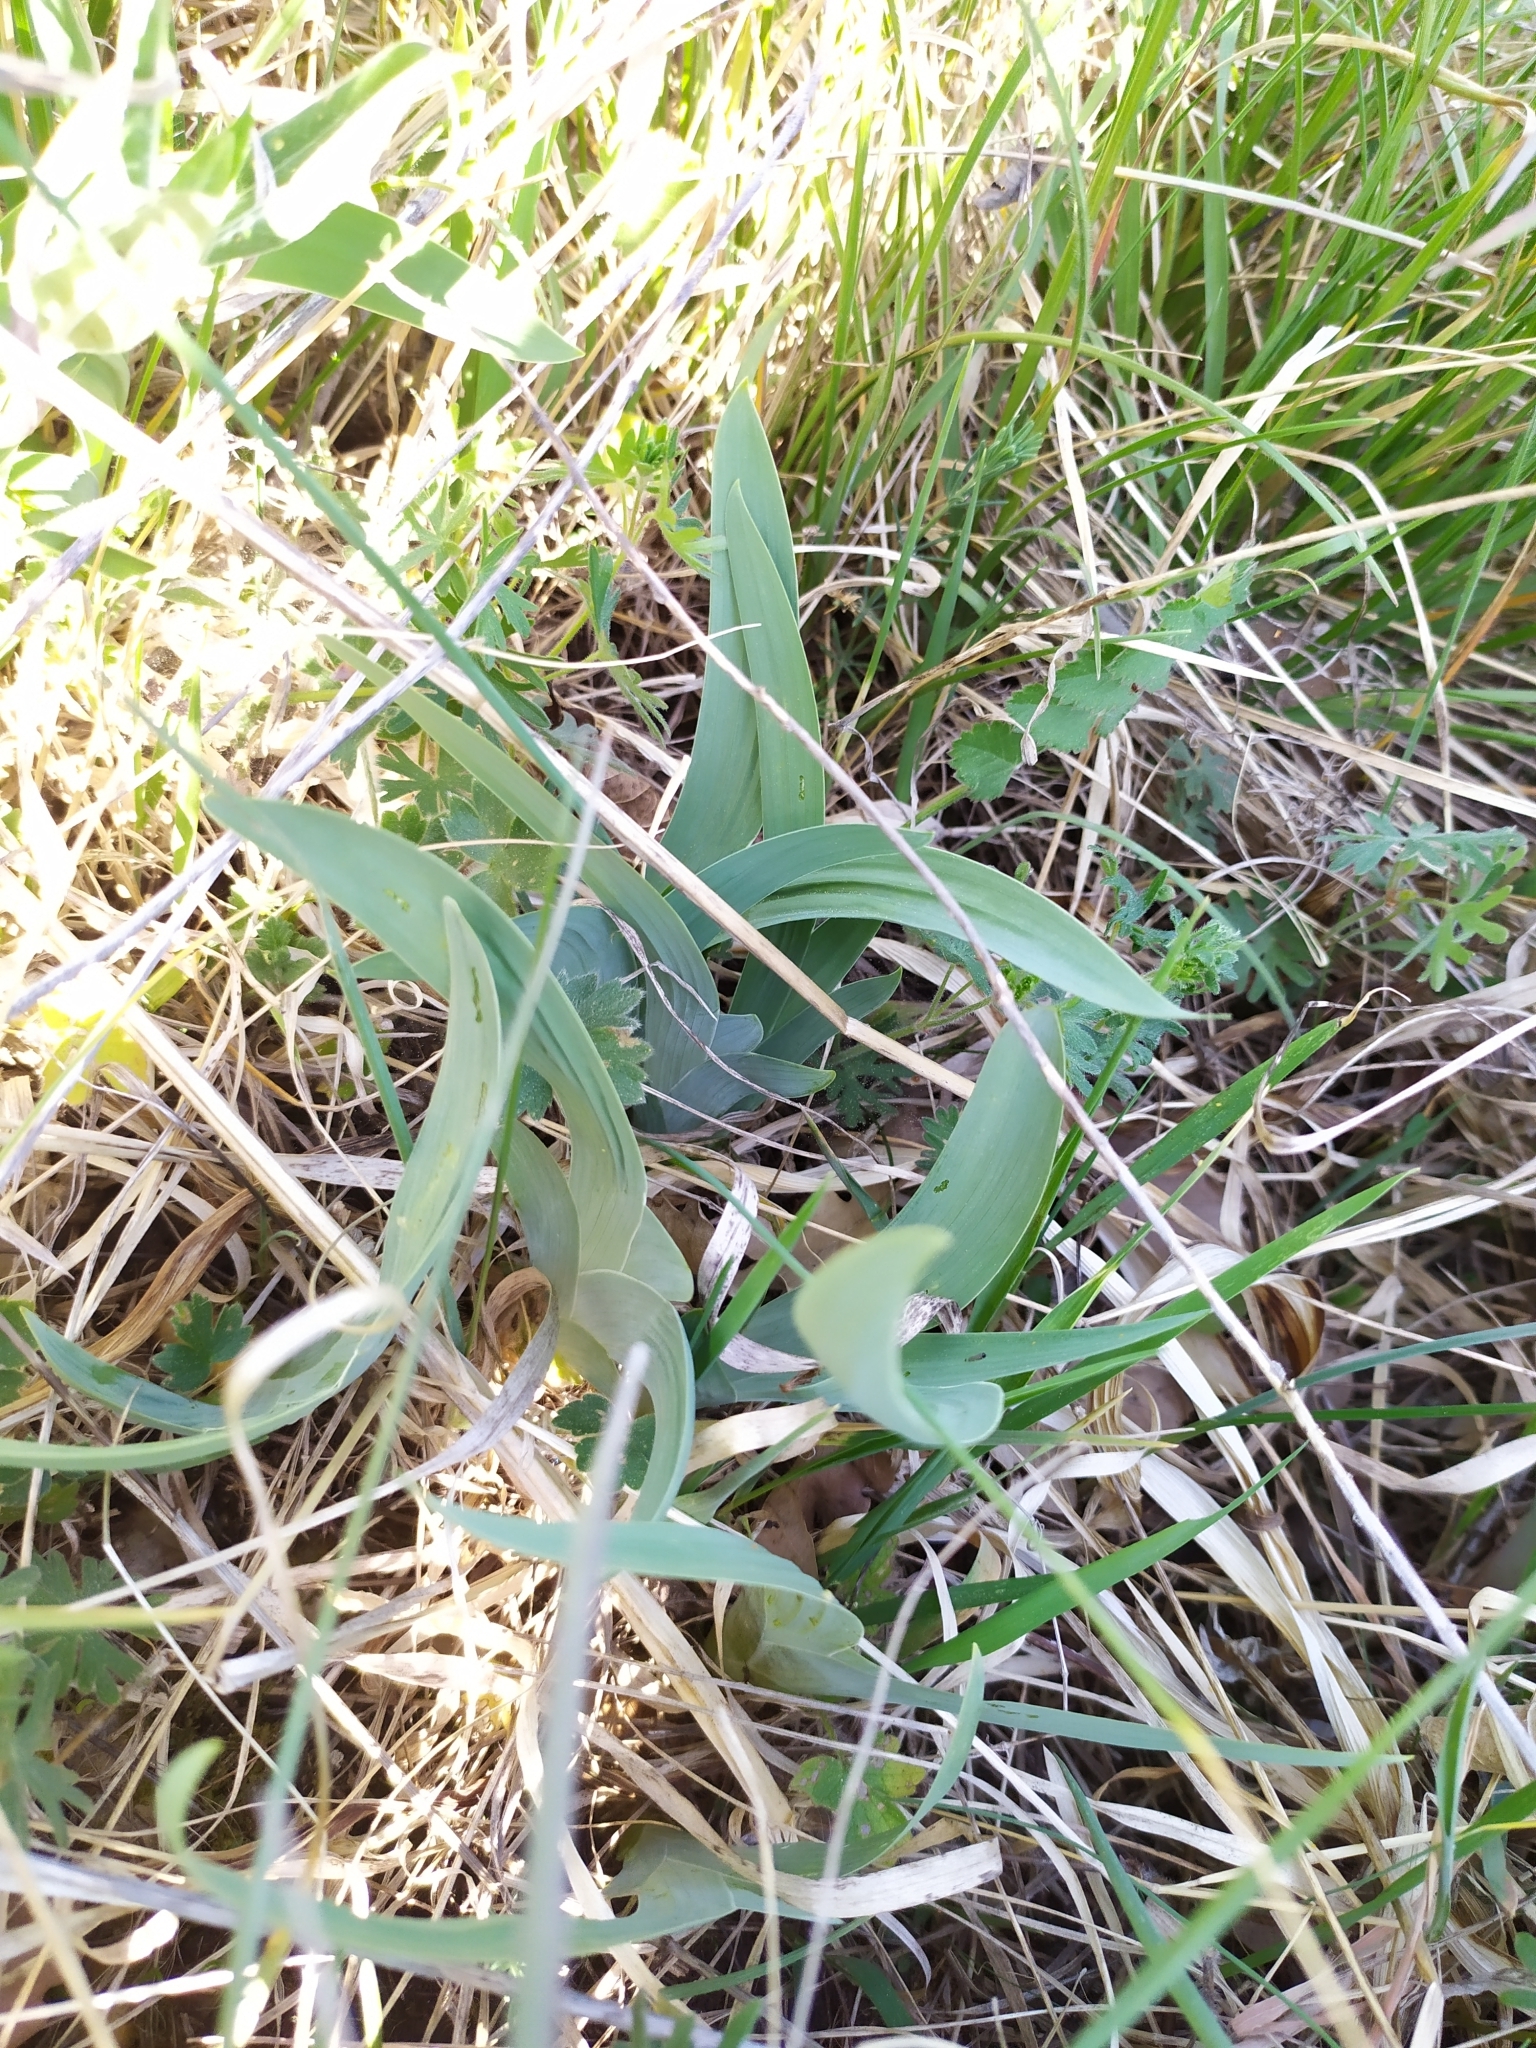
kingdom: Plantae
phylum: Tracheophyta
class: Liliopsida
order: Asparagales
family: Iridaceae
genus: Iris
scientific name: Iris variegata
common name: Hungarian iris
